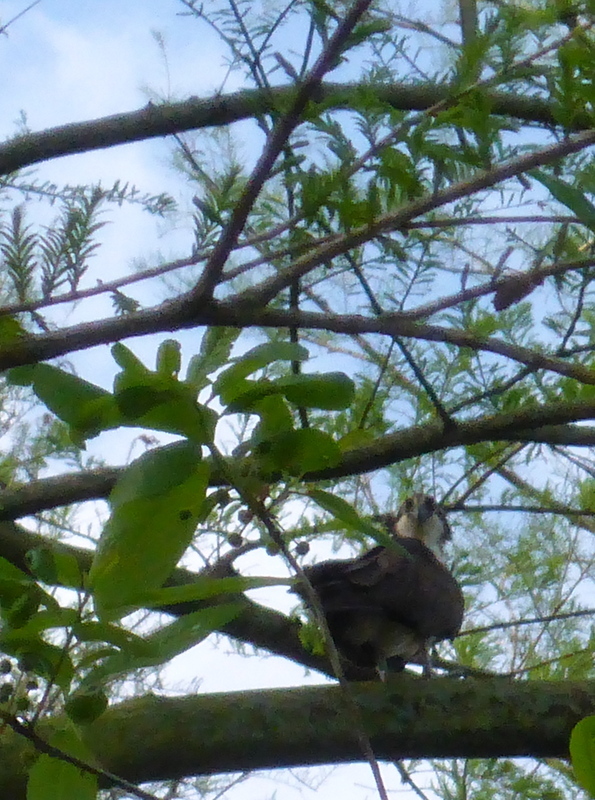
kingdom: Animalia
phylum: Chordata
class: Aves
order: Accipitriformes
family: Pandionidae
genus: Pandion
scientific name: Pandion haliaetus
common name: Osprey
